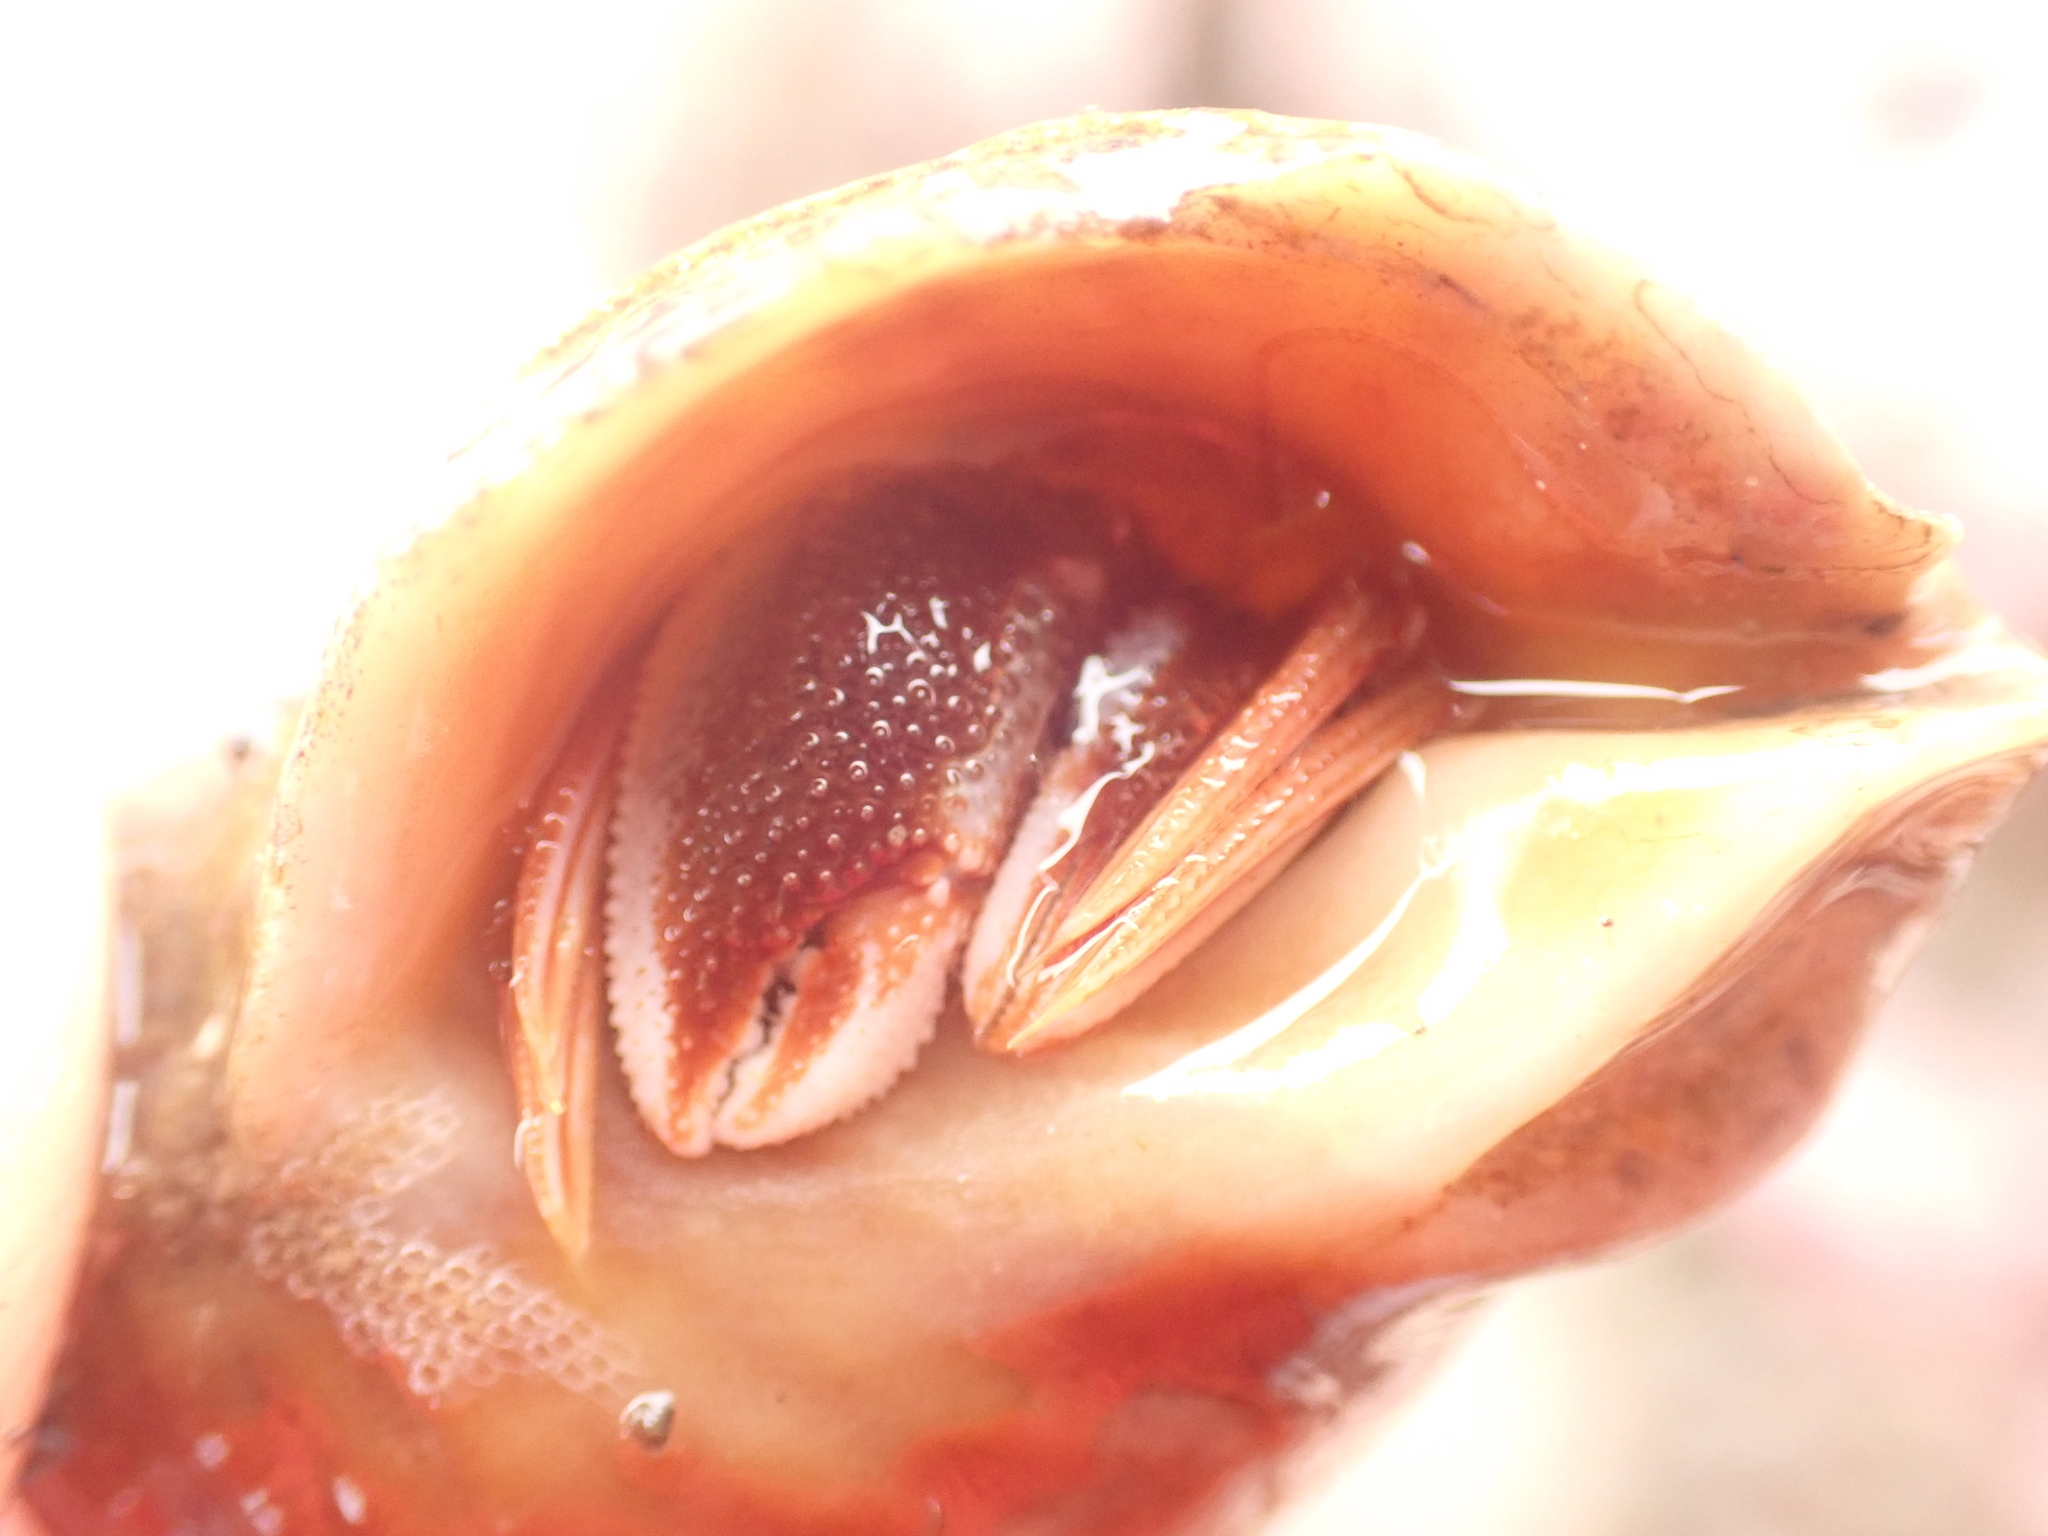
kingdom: Animalia
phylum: Arthropoda
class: Malacostraca
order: Decapoda
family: Paguridae
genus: Pagurus
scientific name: Pagurus acadianus
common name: Acadian hermit crab
